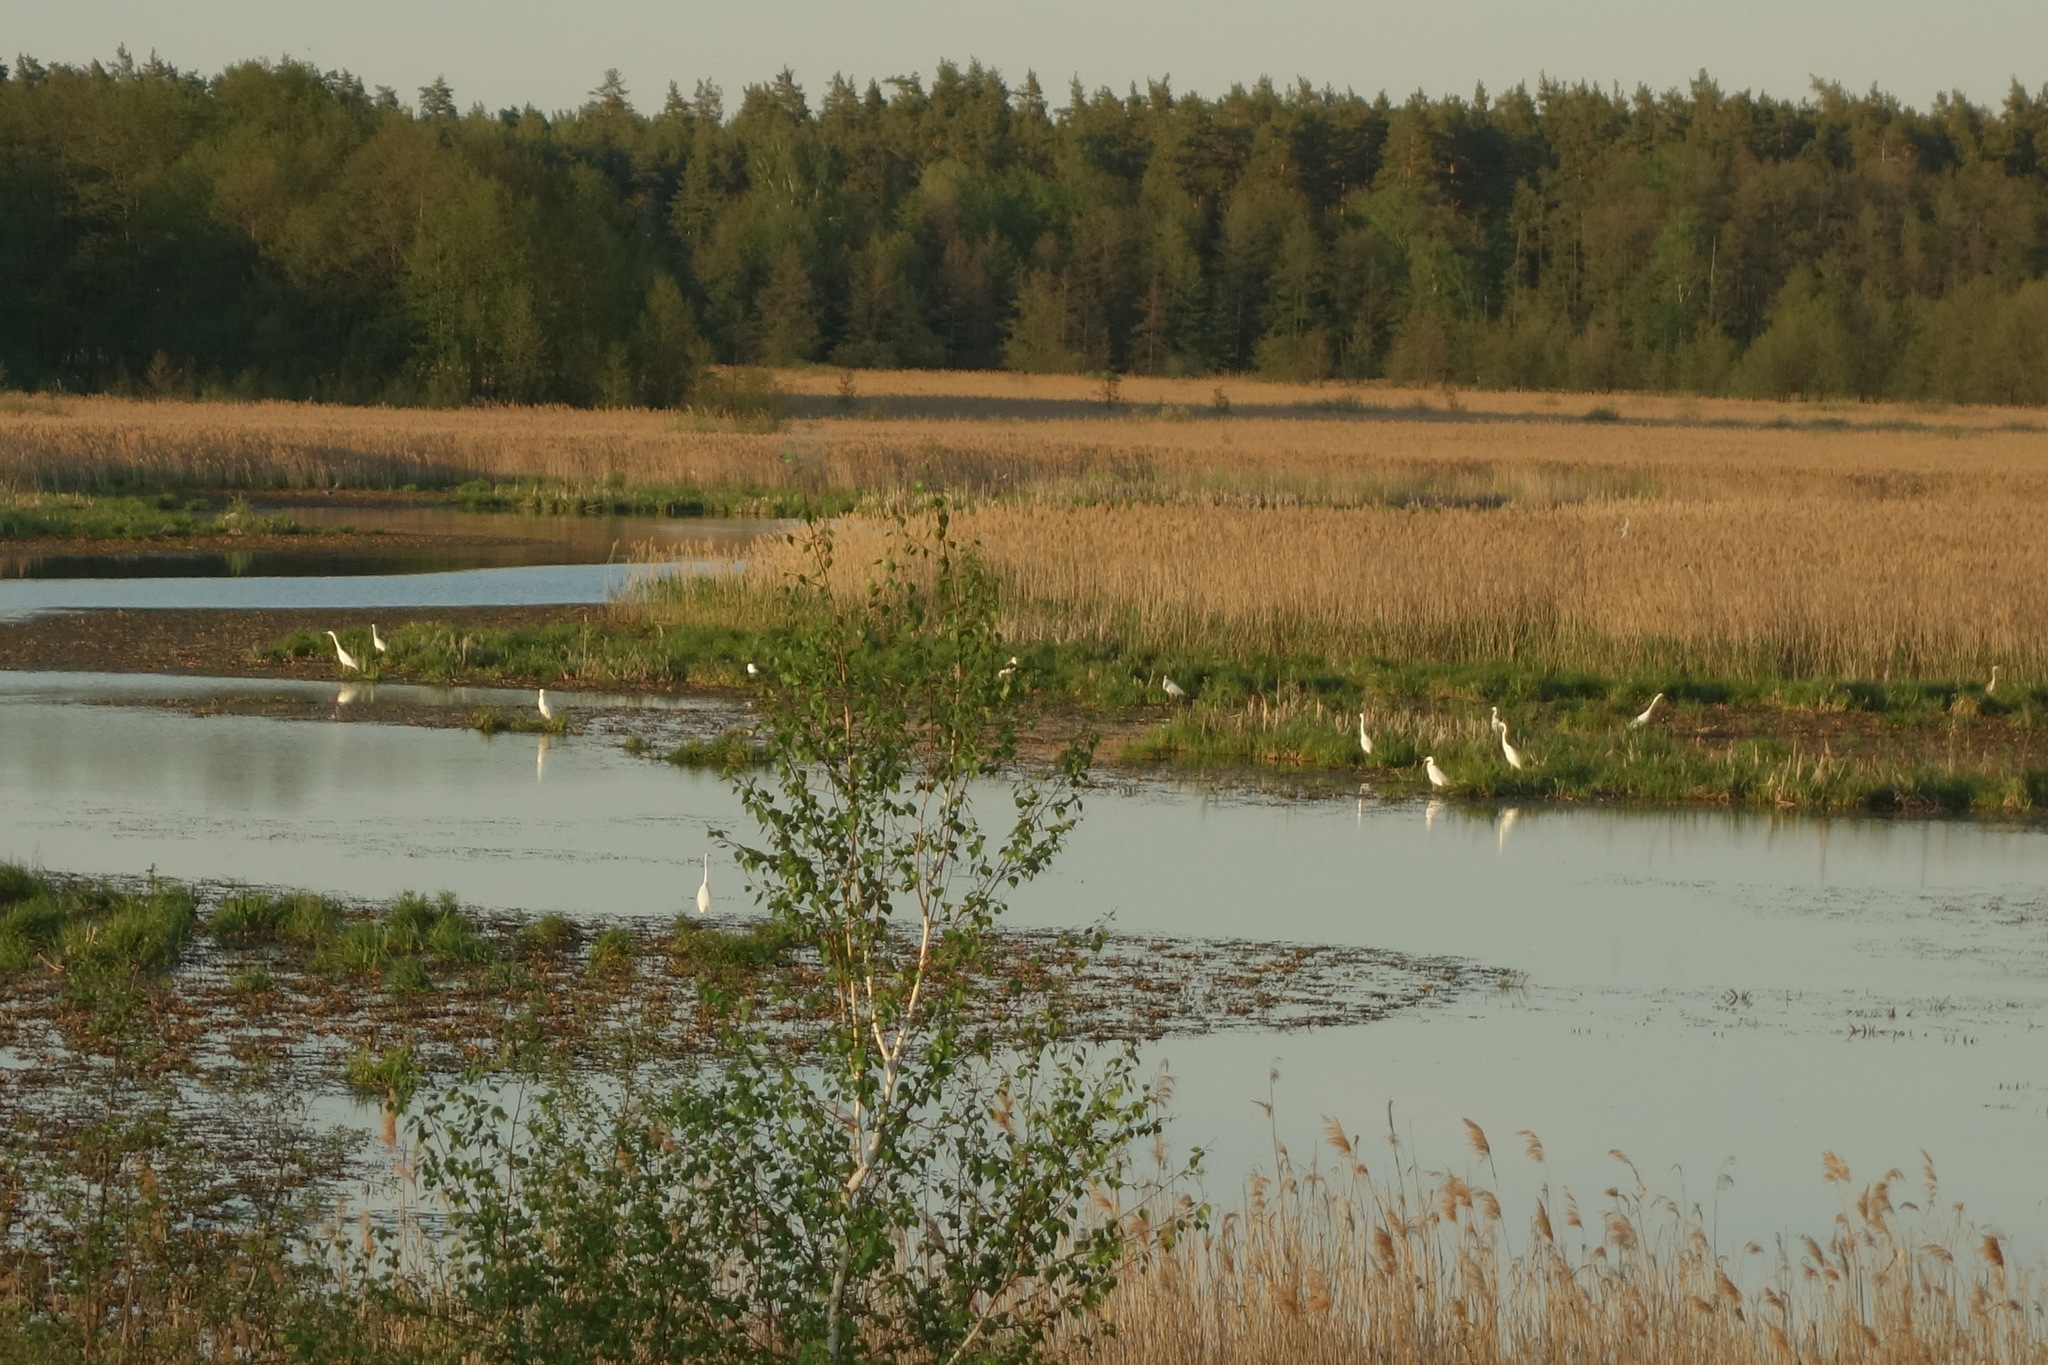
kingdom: Animalia
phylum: Chordata
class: Aves
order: Pelecaniformes
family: Ardeidae
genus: Ardea
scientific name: Ardea alba
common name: Great egret
